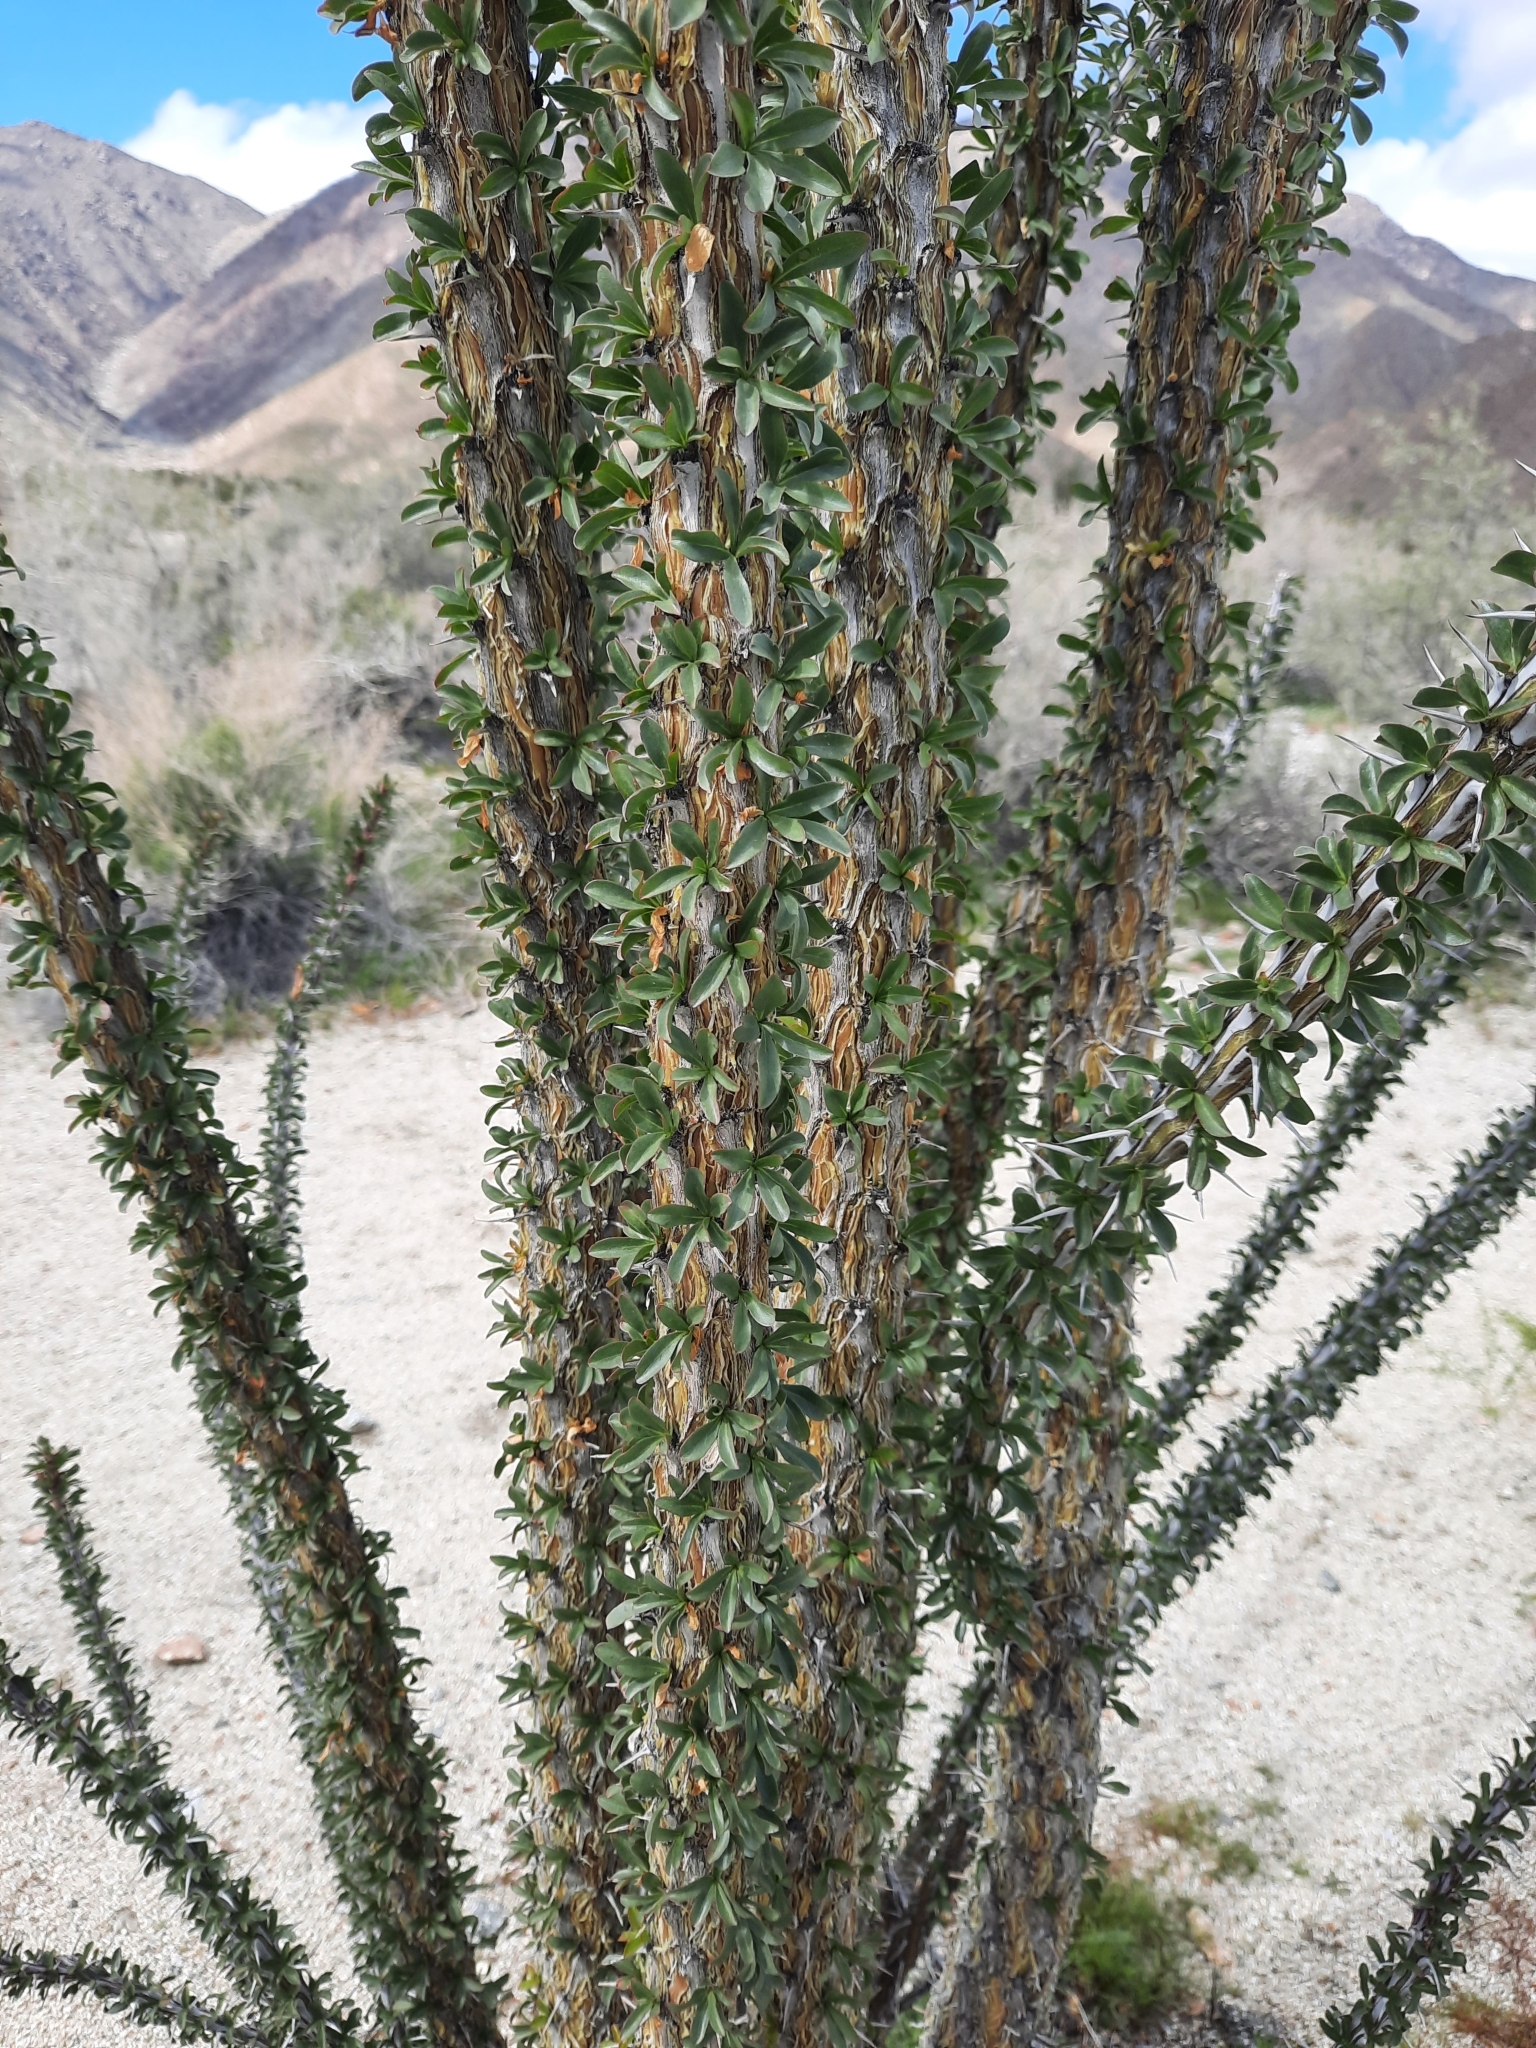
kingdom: Plantae
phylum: Tracheophyta
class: Magnoliopsida
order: Ericales
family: Fouquieriaceae
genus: Fouquieria
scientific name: Fouquieria splendens
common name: Vine-cactus
